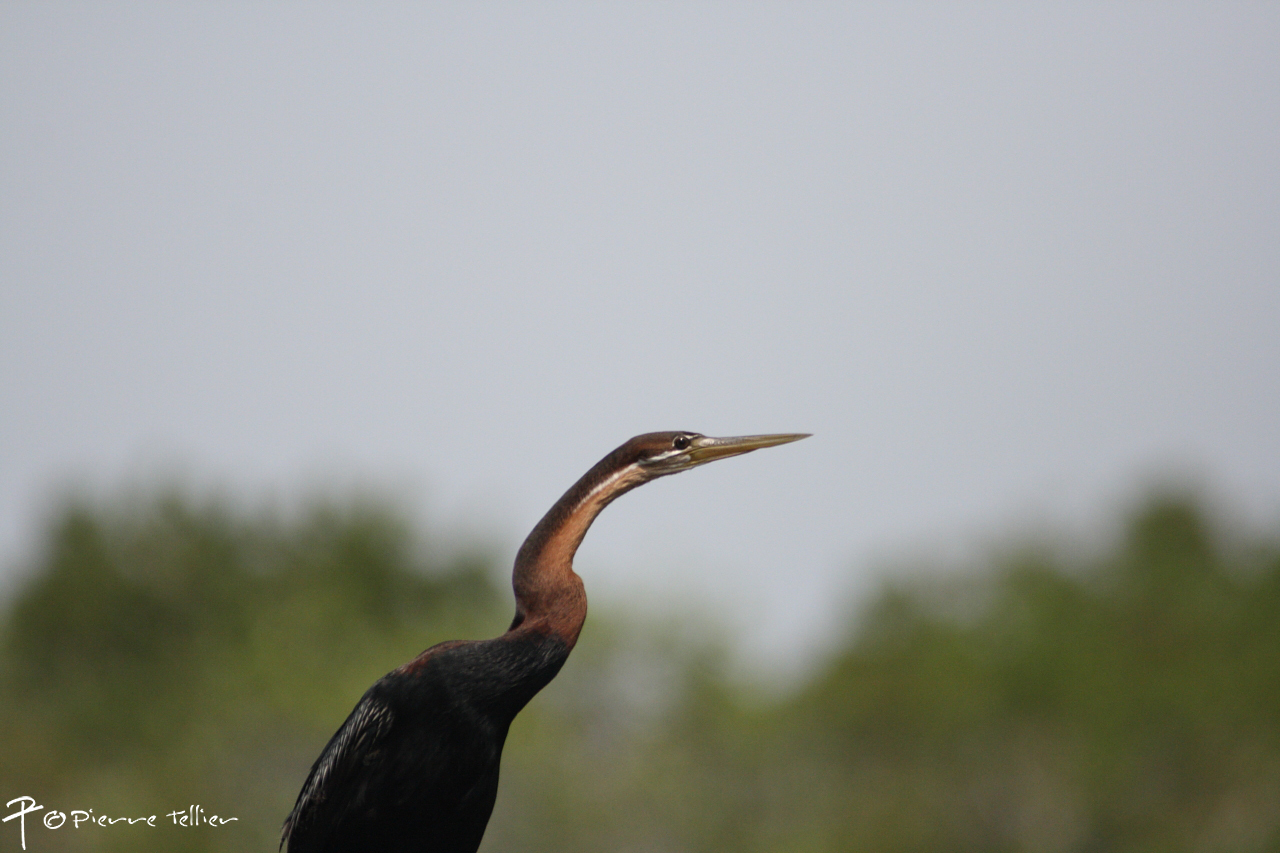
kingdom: Animalia
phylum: Chordata
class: Aves
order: Suliformes
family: Anhingidae
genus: Anhinga
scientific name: Anhinga rufa
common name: African darter
